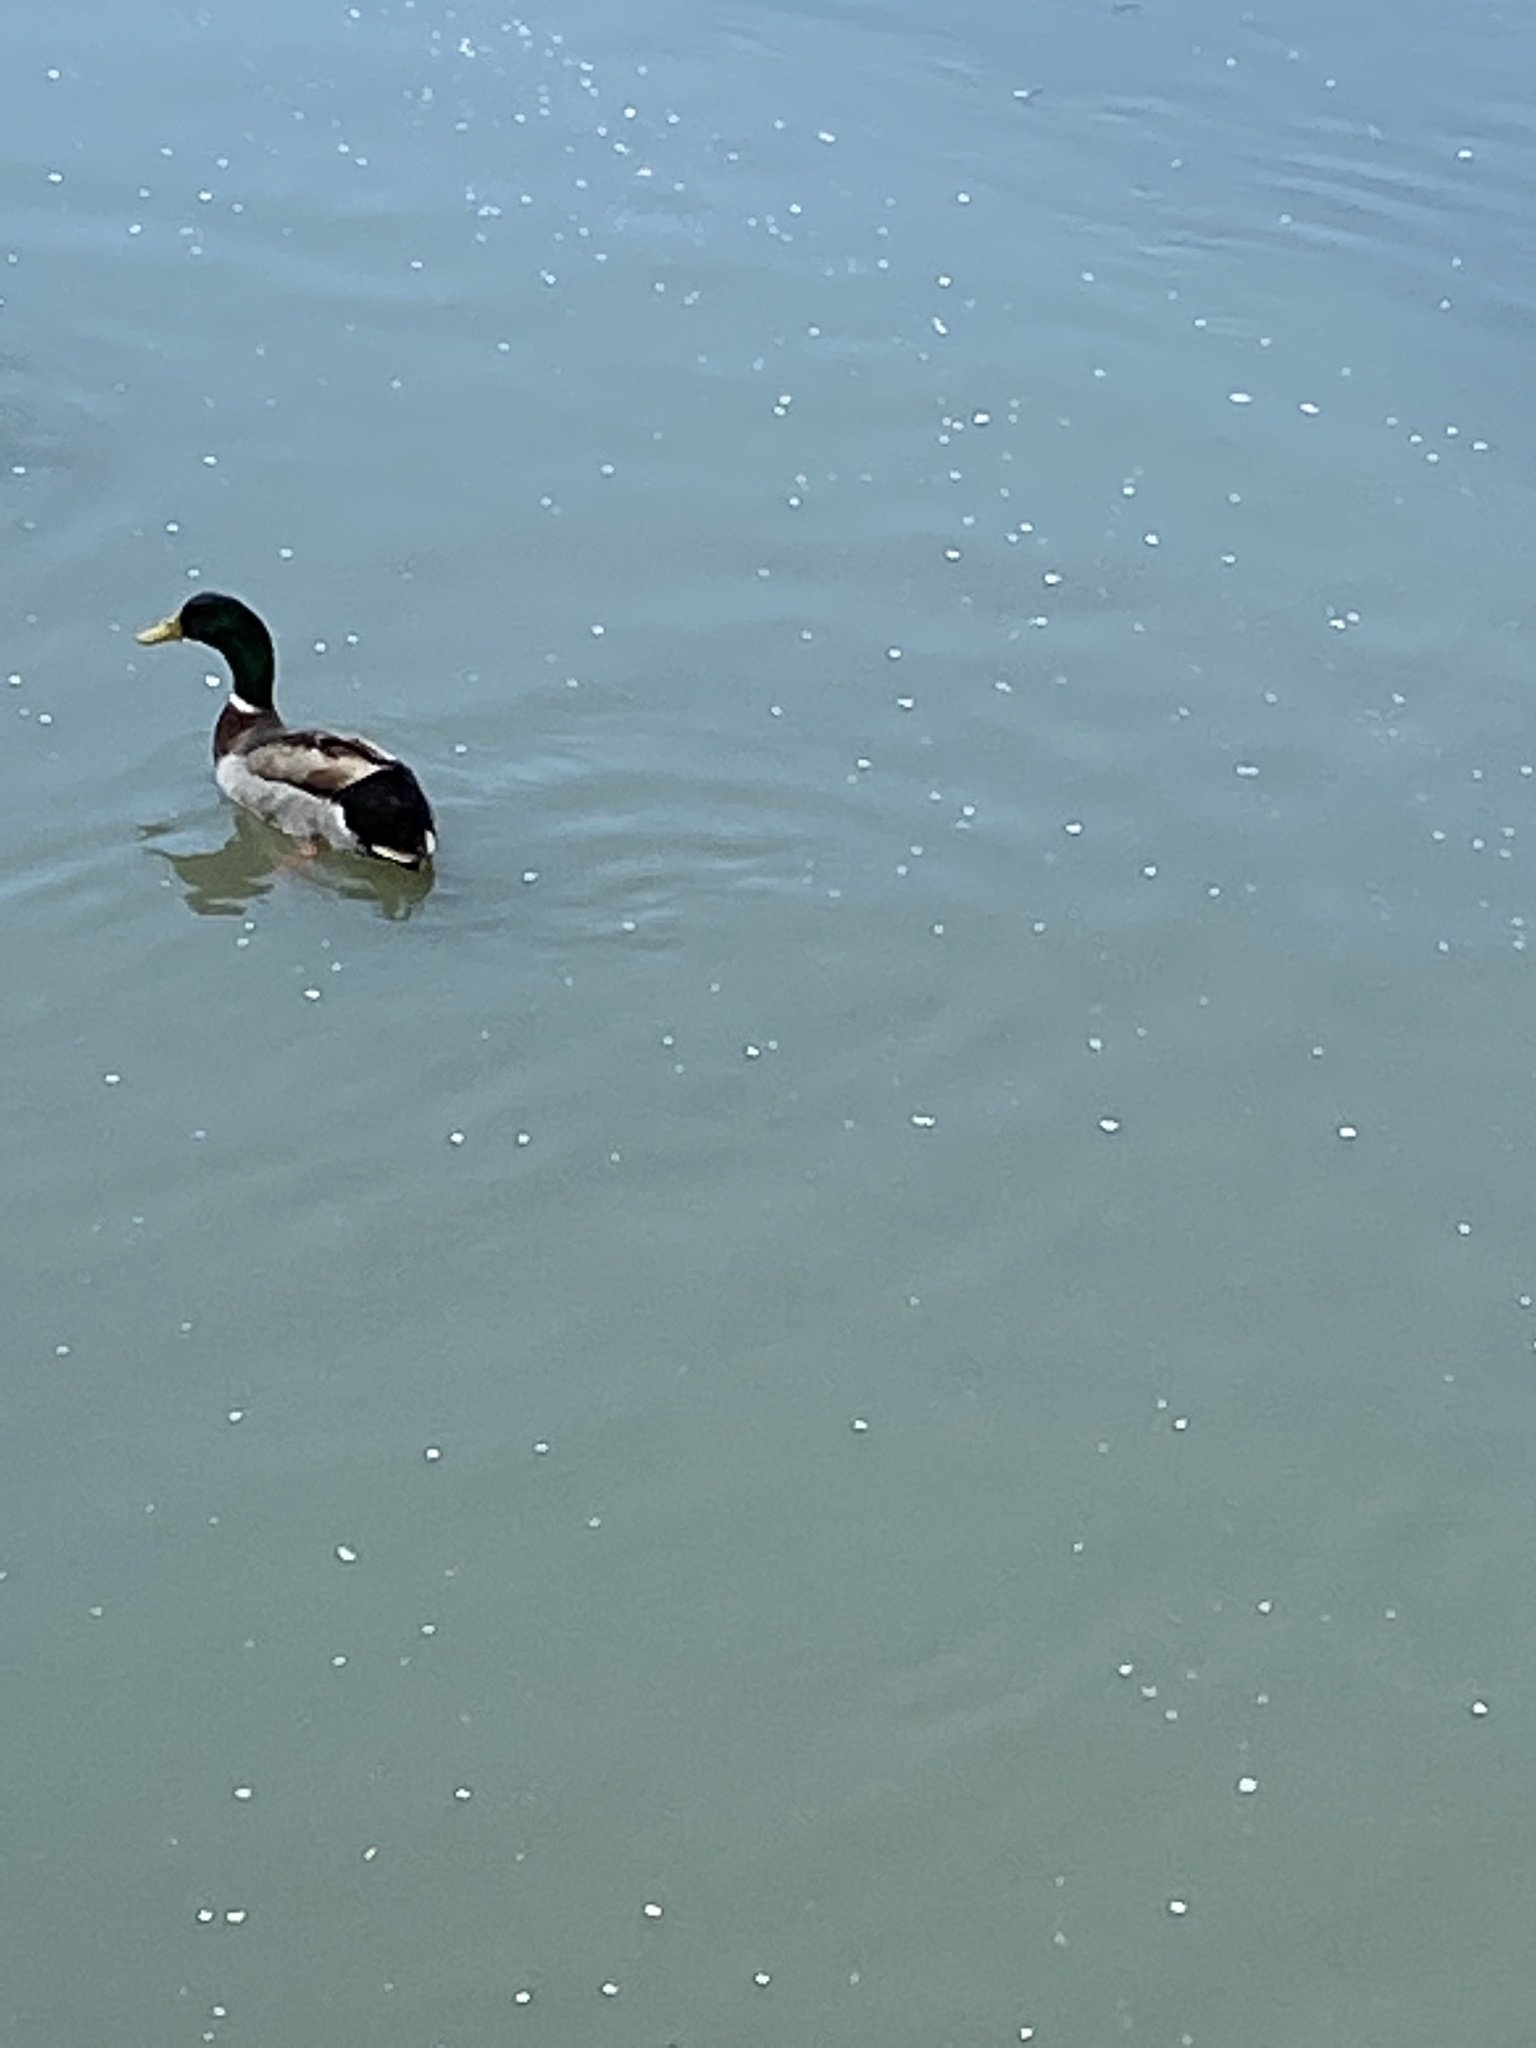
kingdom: Animalia
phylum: Chordata
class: Aves
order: Anseriformes
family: Anatidae
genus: Anas
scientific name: Anas platyrhynchos
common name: Mallard
